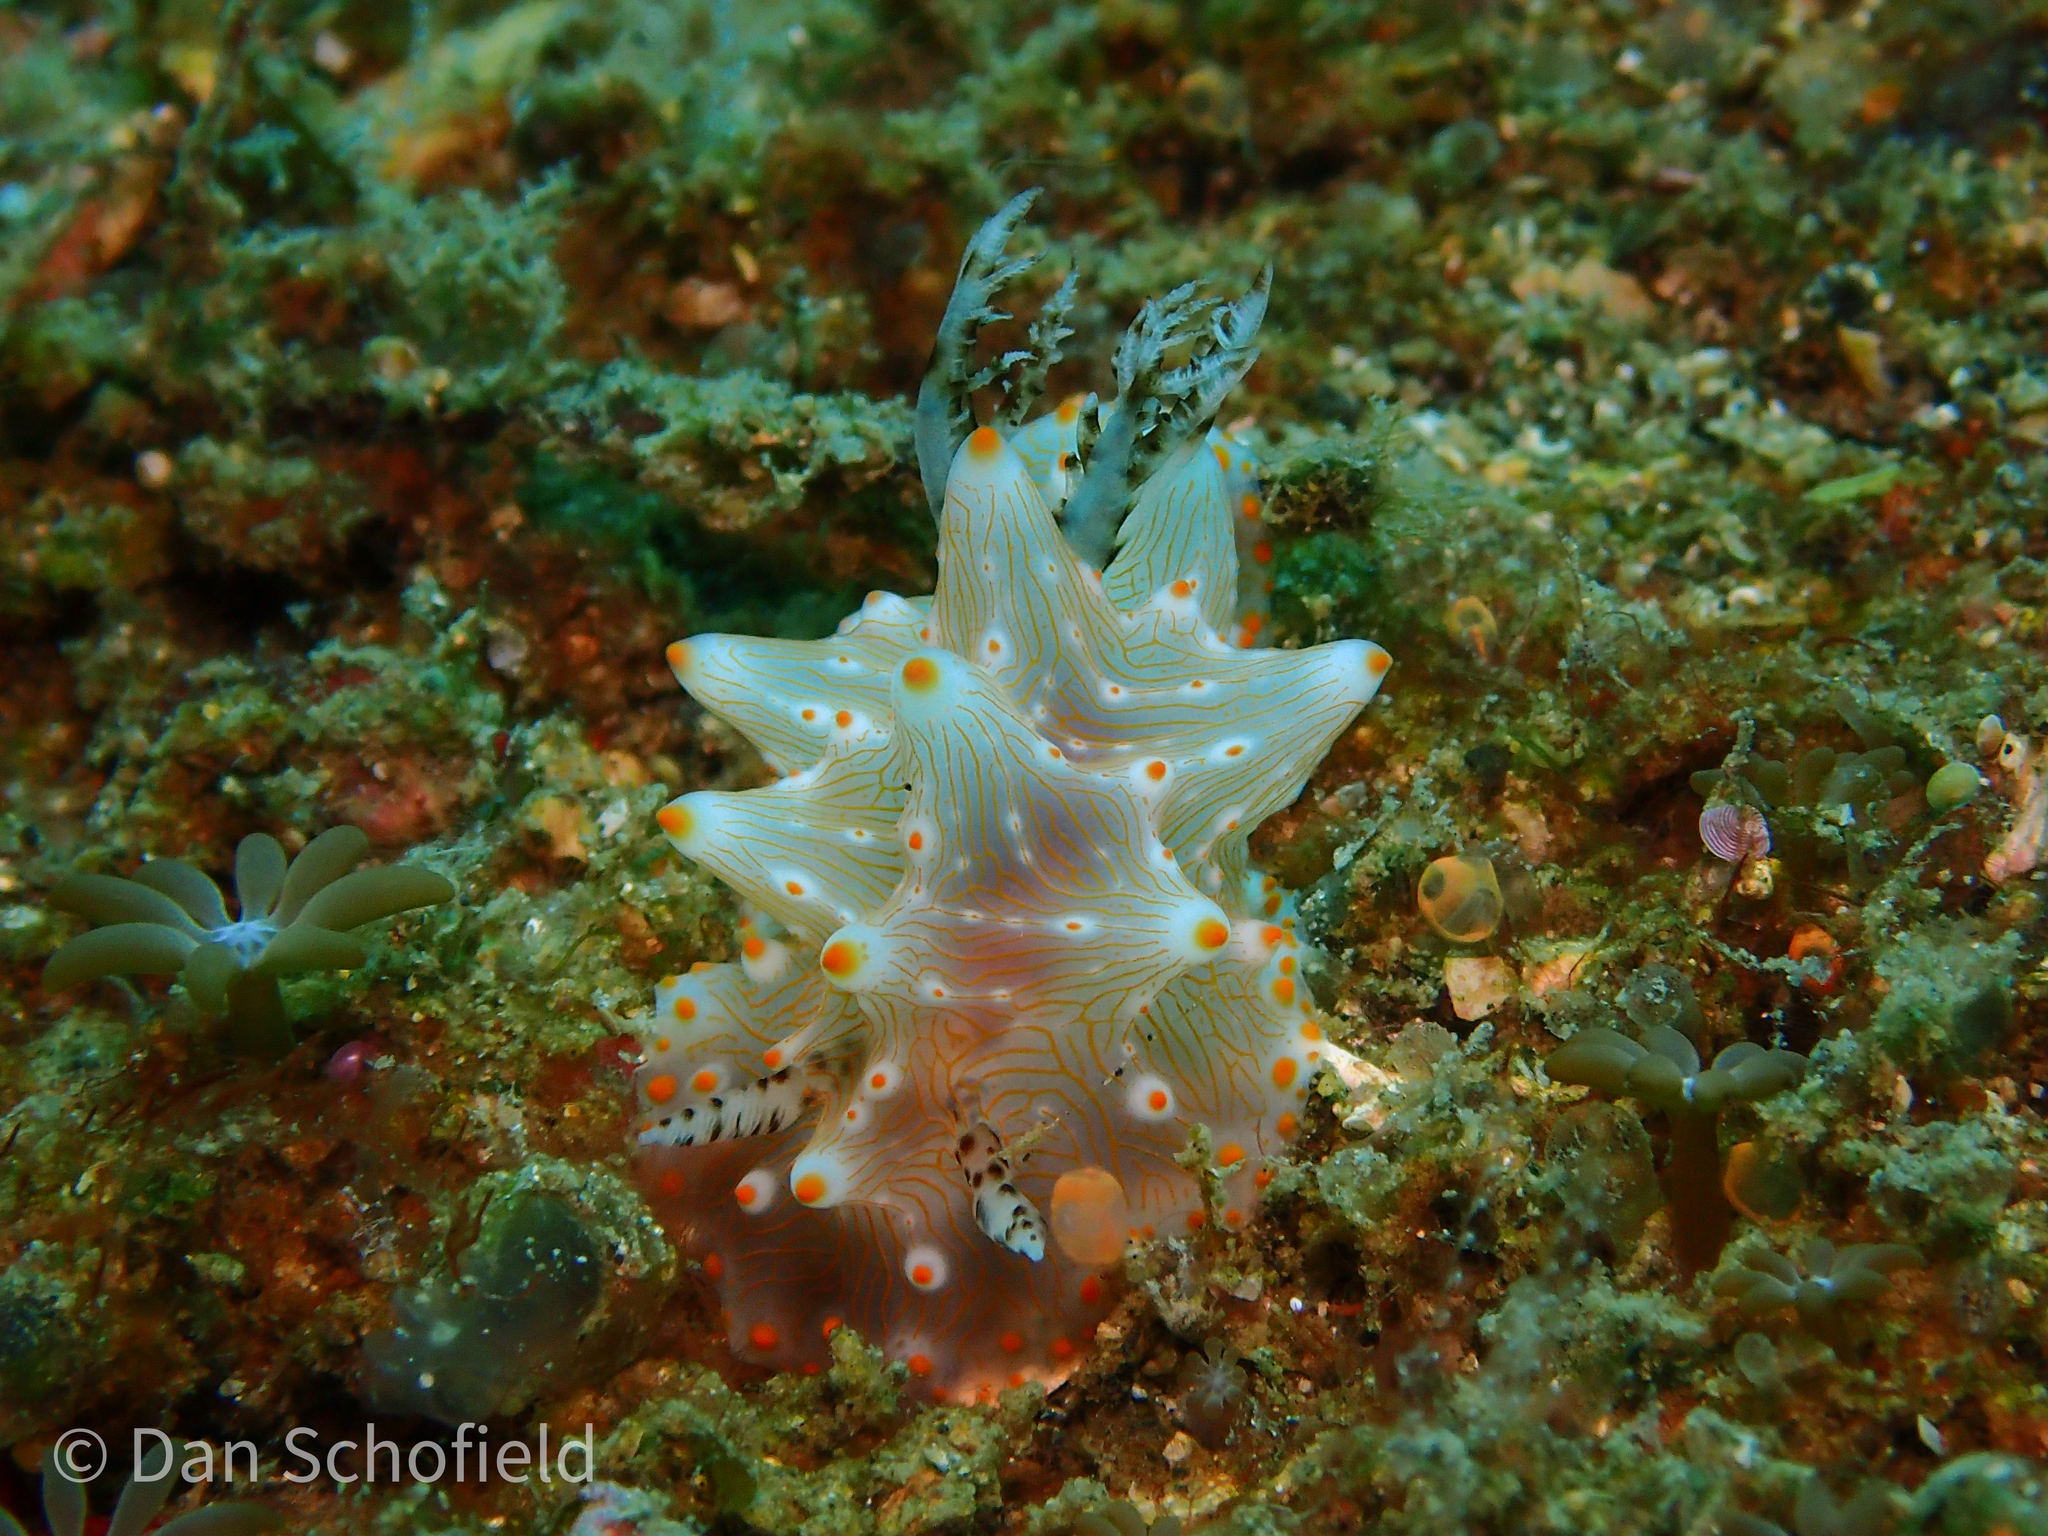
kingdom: Animalia
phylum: Mollusca
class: Gastropoda
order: Nudibranchia
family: Discodorididae
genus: Halgerda
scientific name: Halgerda batangas
